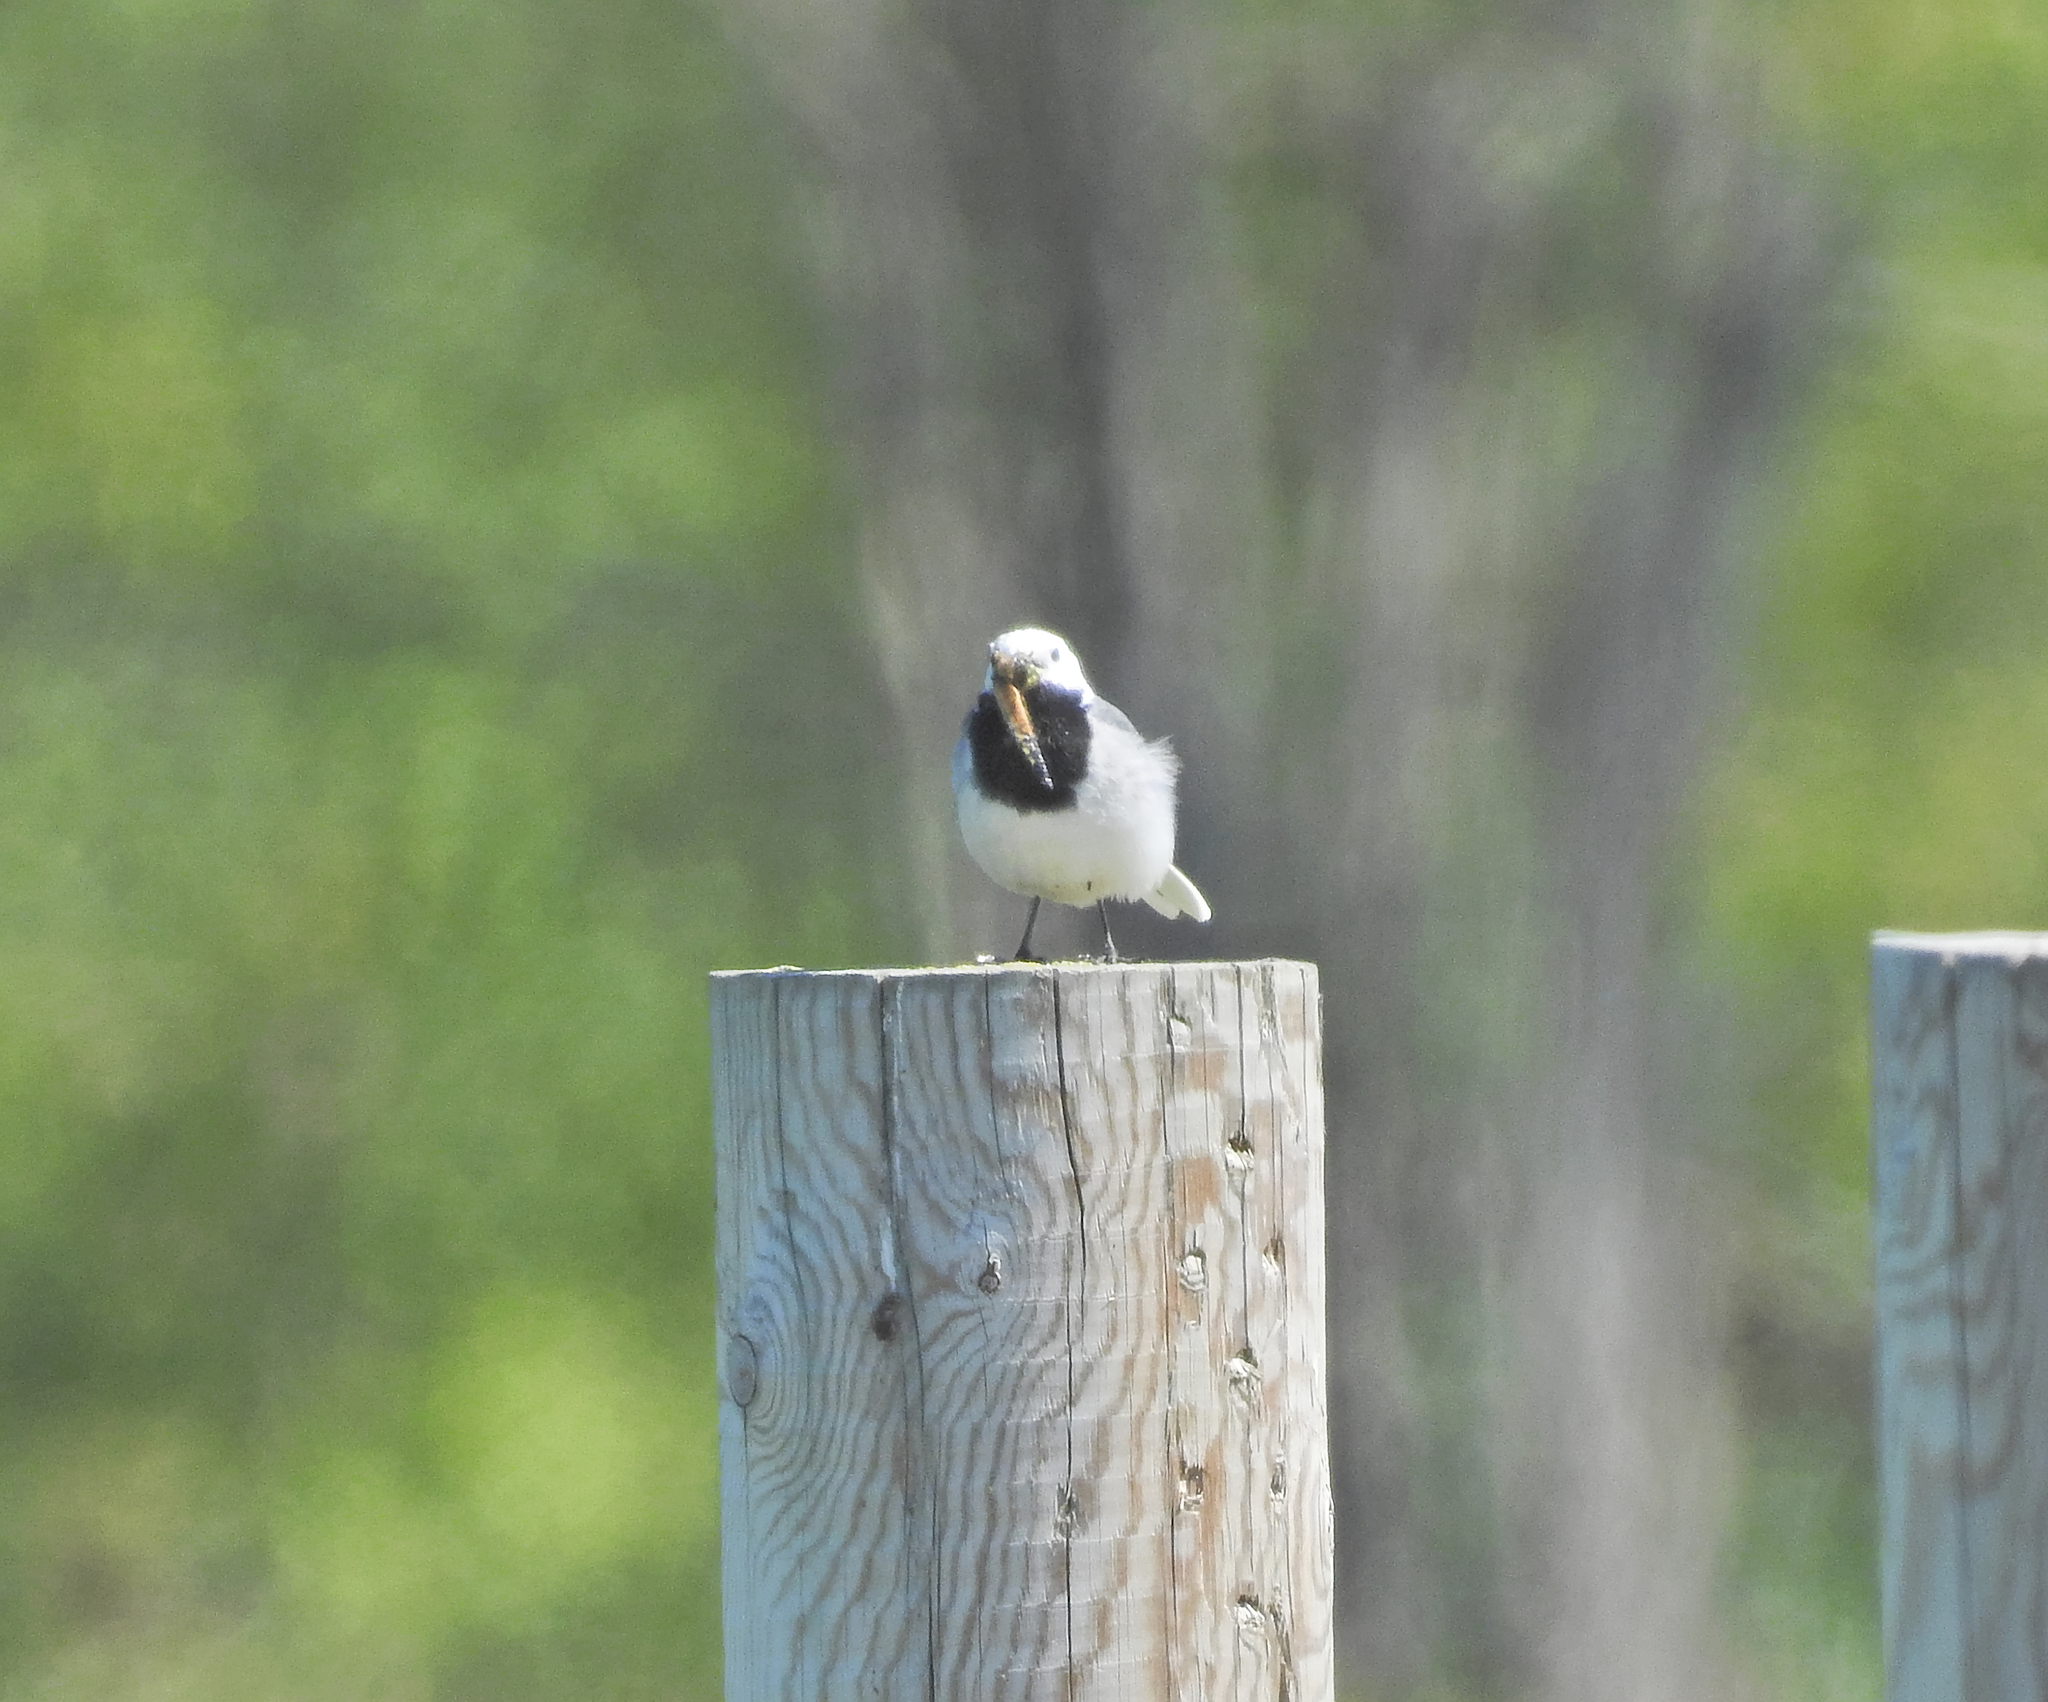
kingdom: Animalia
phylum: Chordata
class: Aves
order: Passeriformes
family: Motacillidae
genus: Motacilla
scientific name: Motacilla alba
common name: White wagtail
